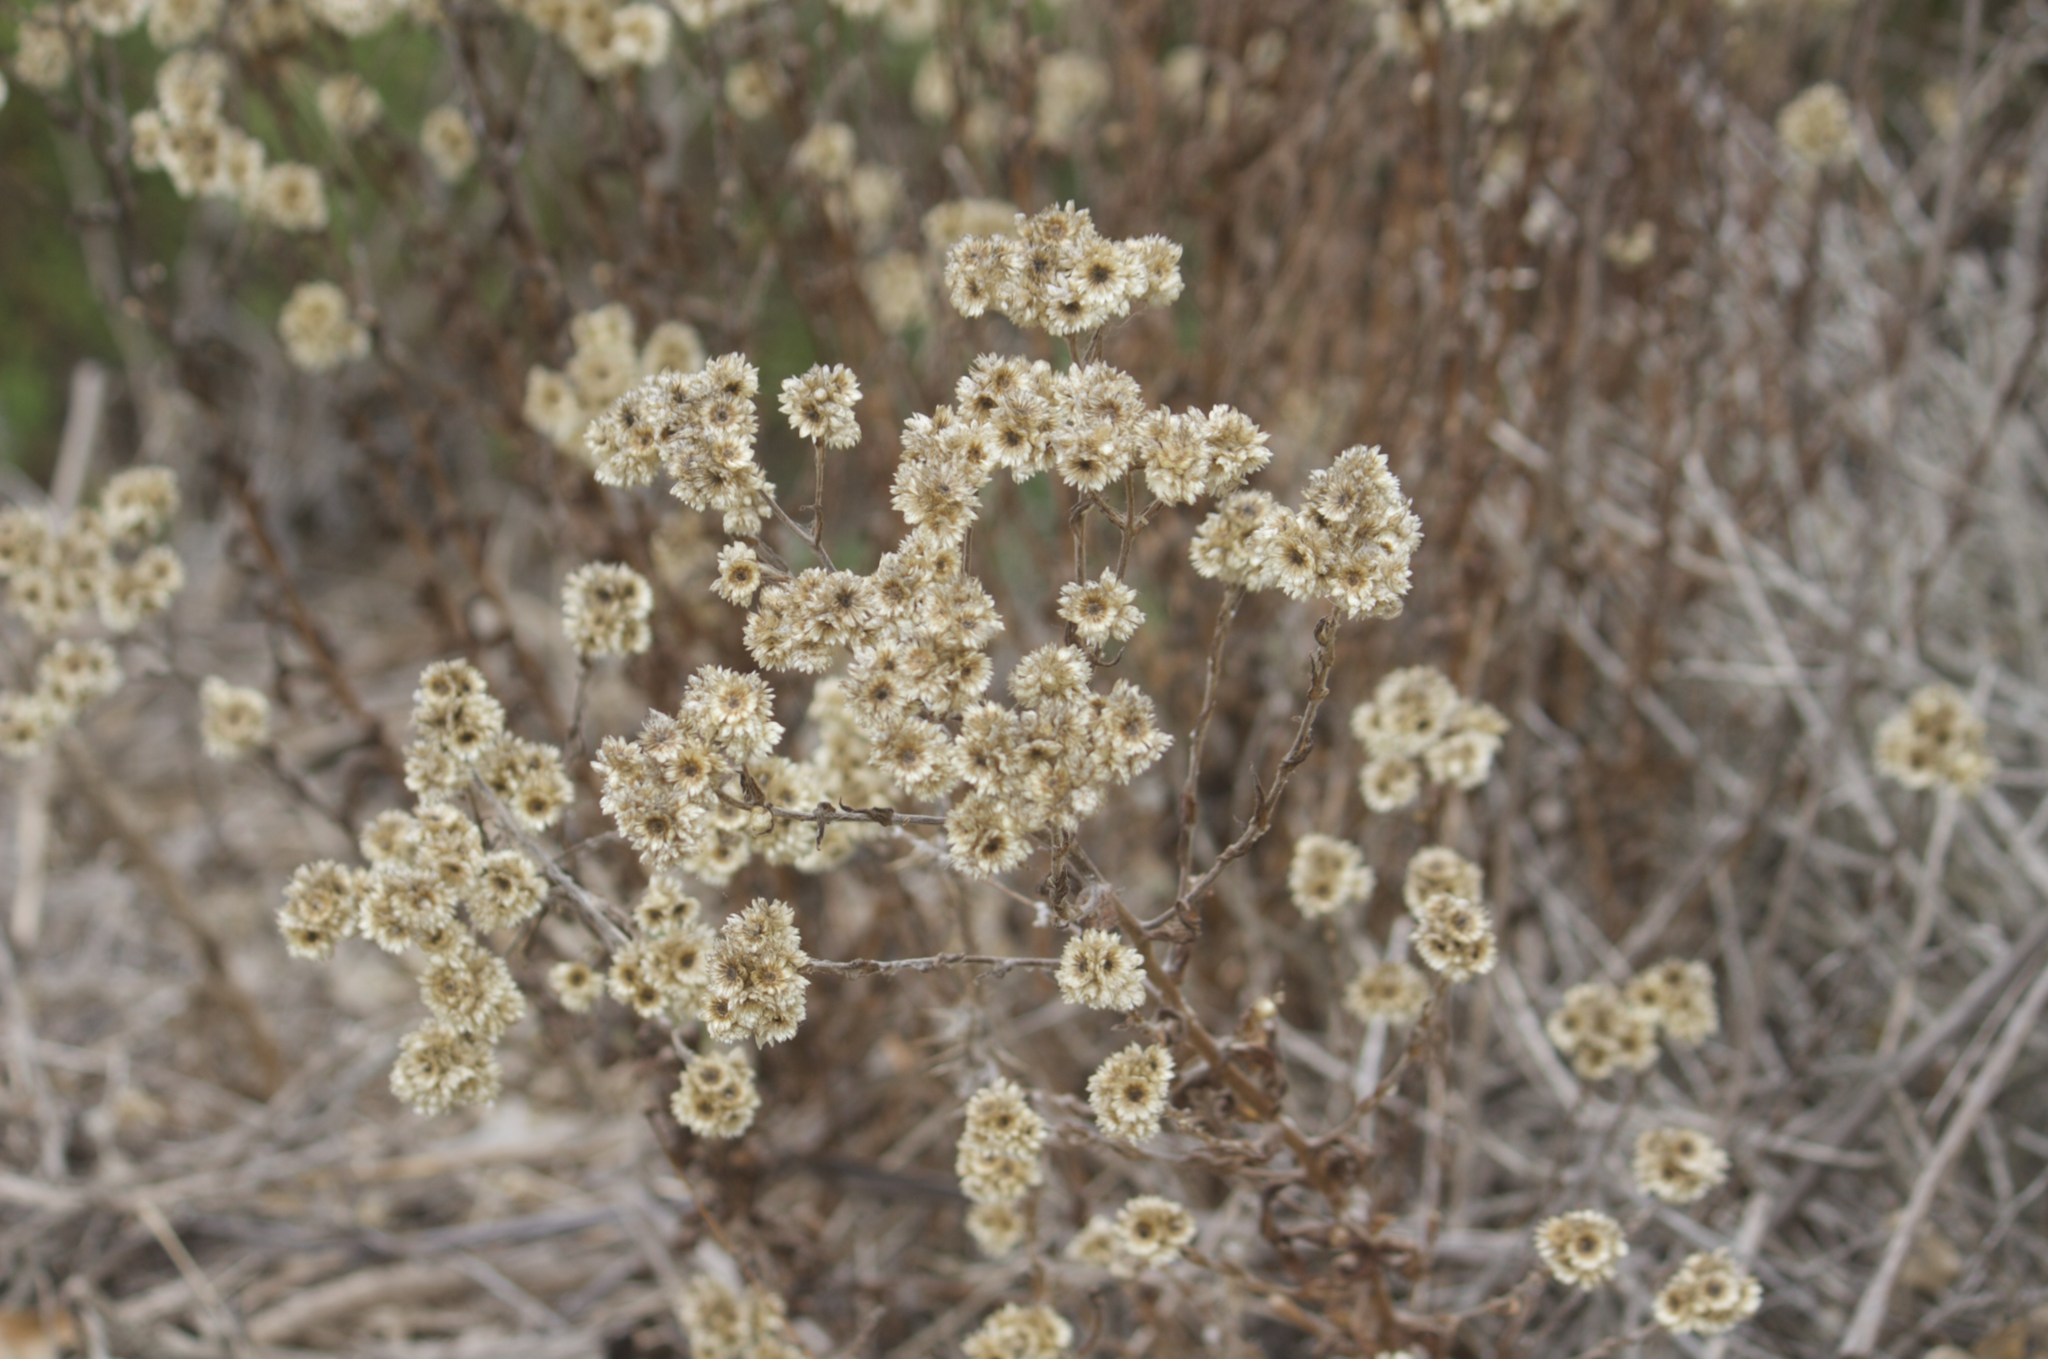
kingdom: Plantae
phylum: Tracheophyta
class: Magnoliopsida
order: Asterales
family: Asteraceae
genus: Pseudognaphalium
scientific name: Pseudognaphalium californicum
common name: California rabbit-tobacco
